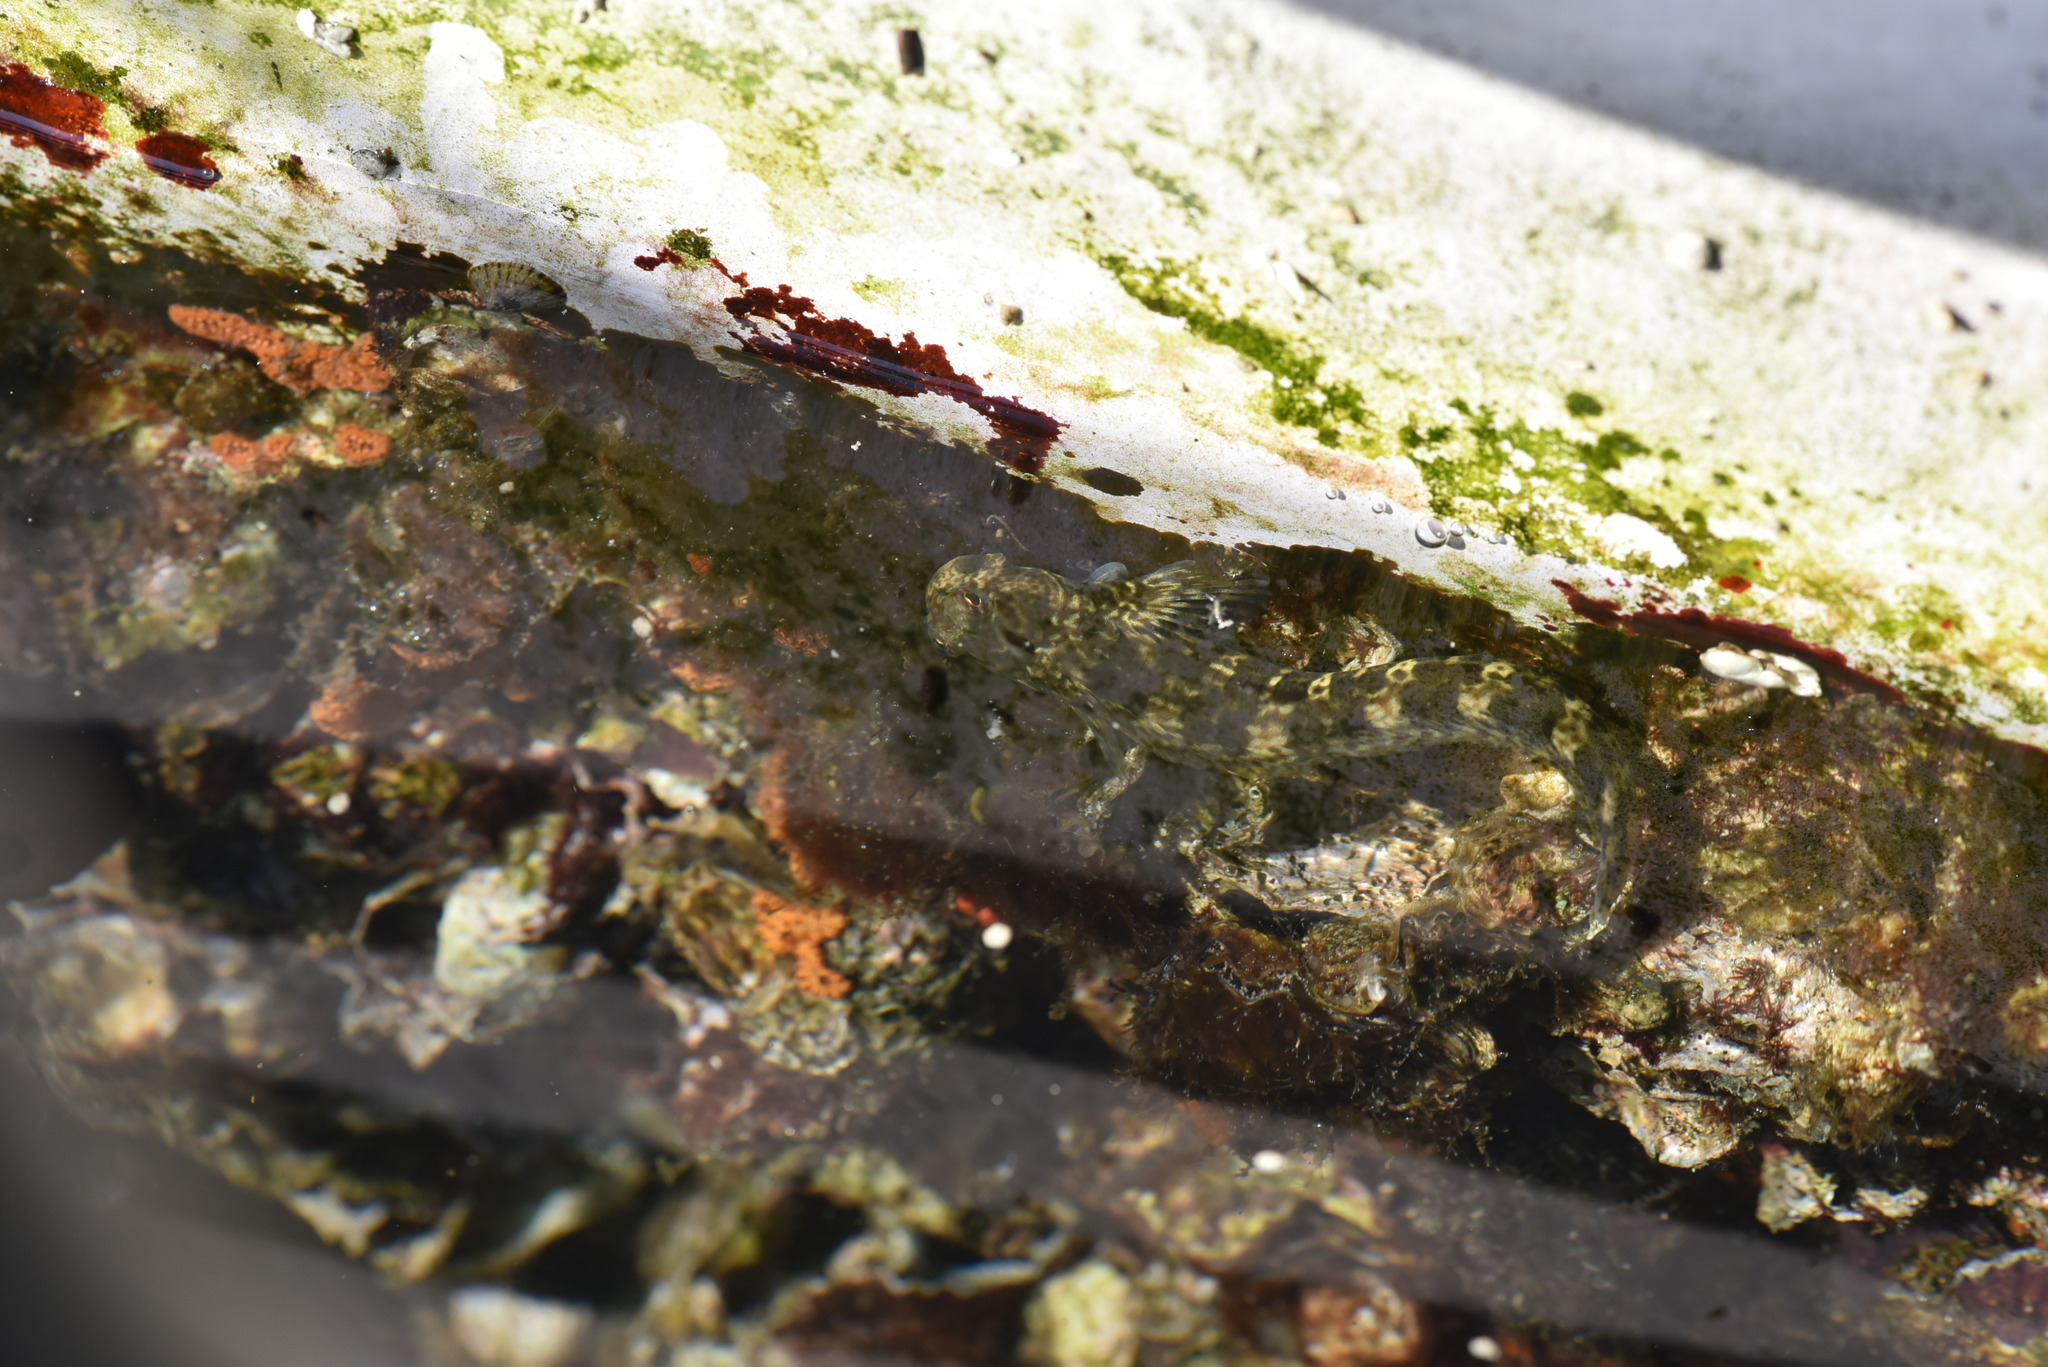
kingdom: Animalia
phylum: Chordata
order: Perciformes
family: Blenniidae
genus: Istiblennius
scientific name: Istiblennius dussumieri
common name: Dussumier's rockskipper
